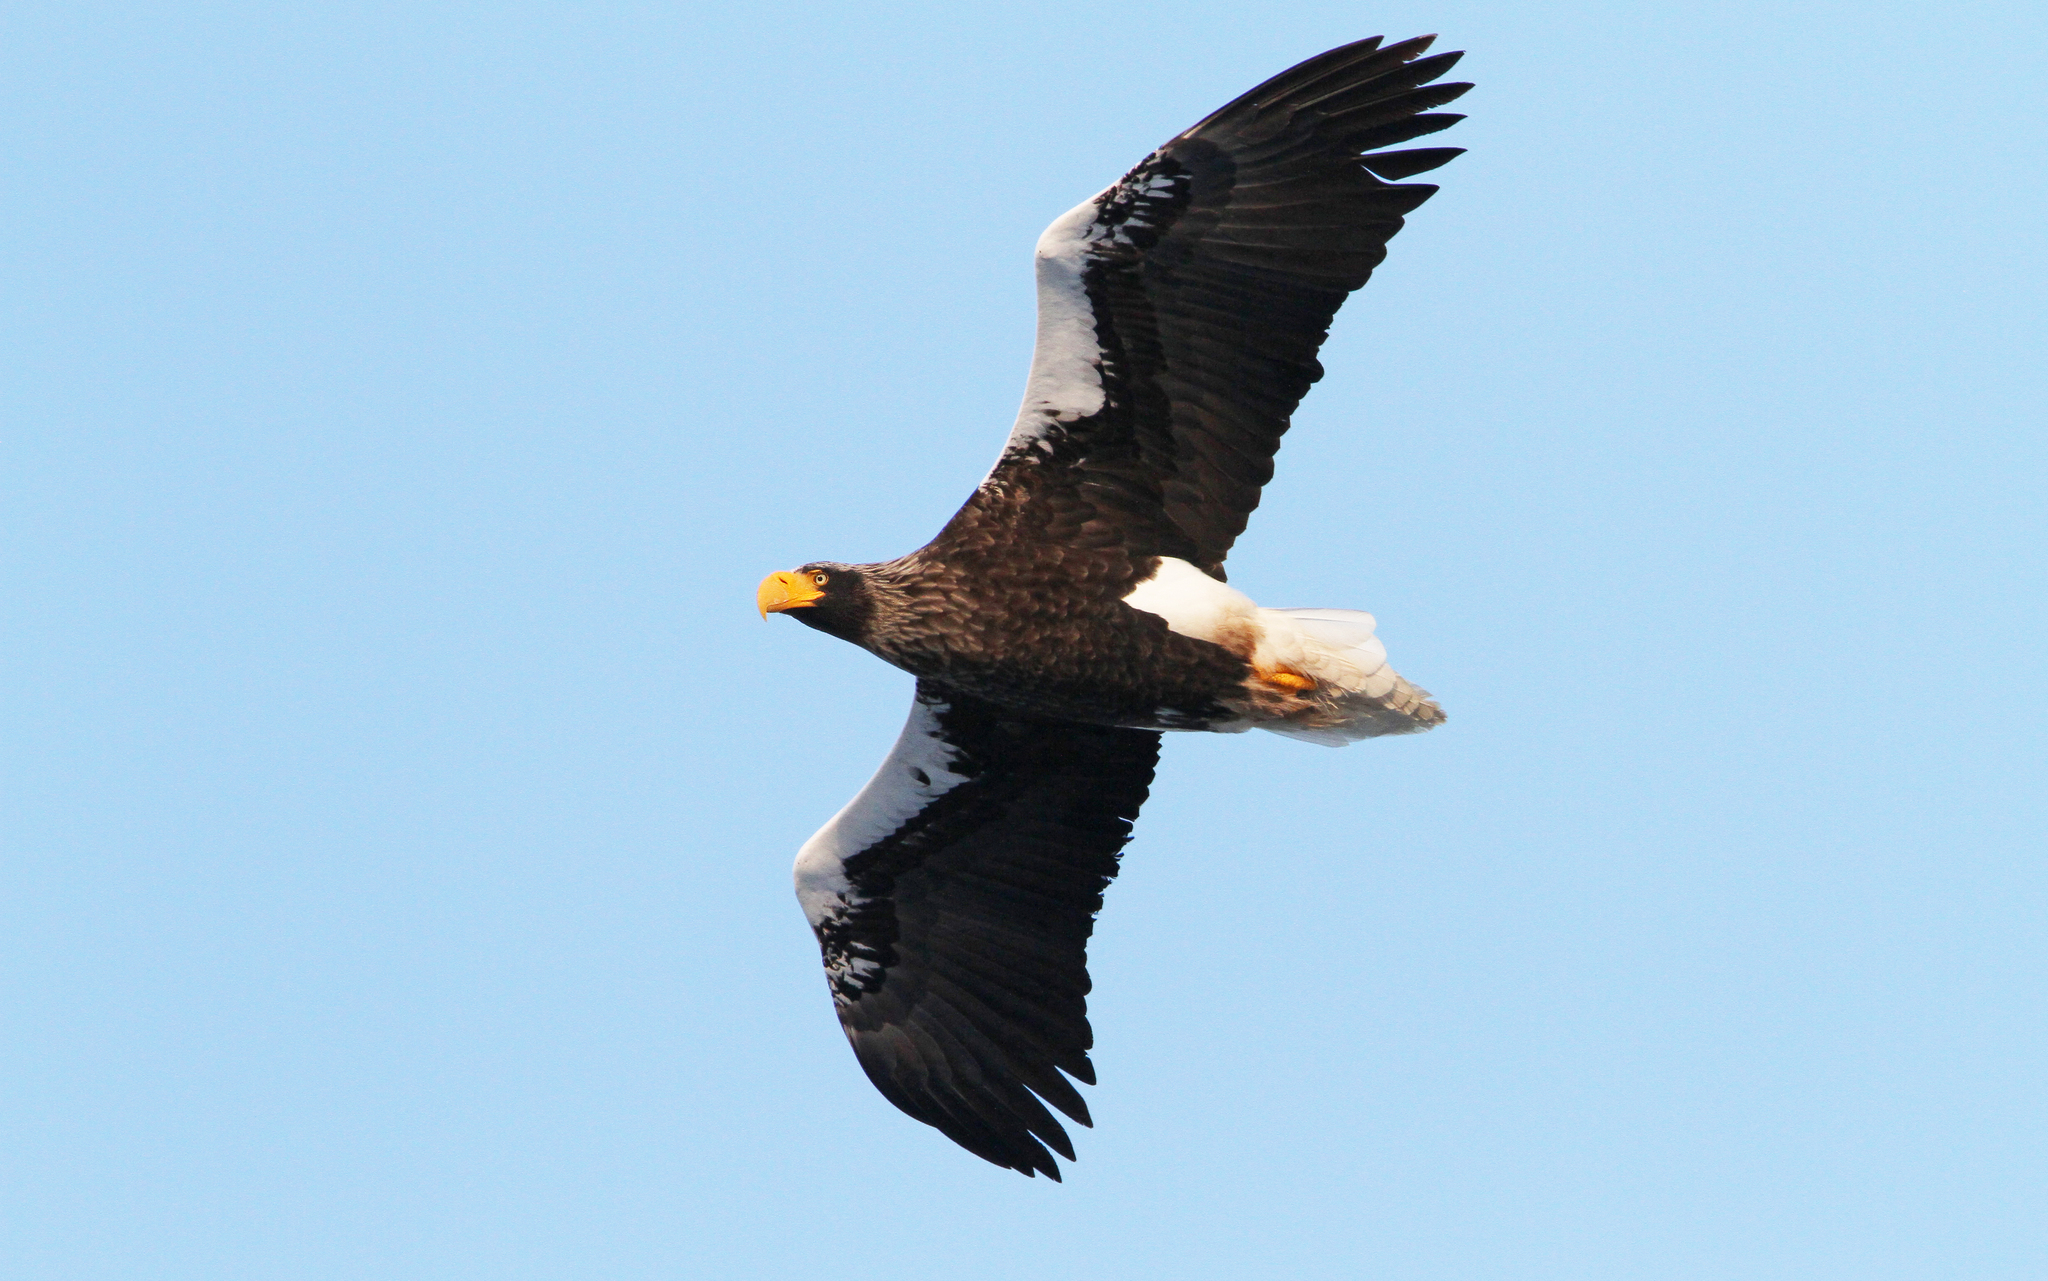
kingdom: Animalia
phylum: Chordata
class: Aves
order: Accipitriformes
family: Accipitridae
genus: Haliaeetus
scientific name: Haliaeetus pelagicus
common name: Steller's sea eagle
